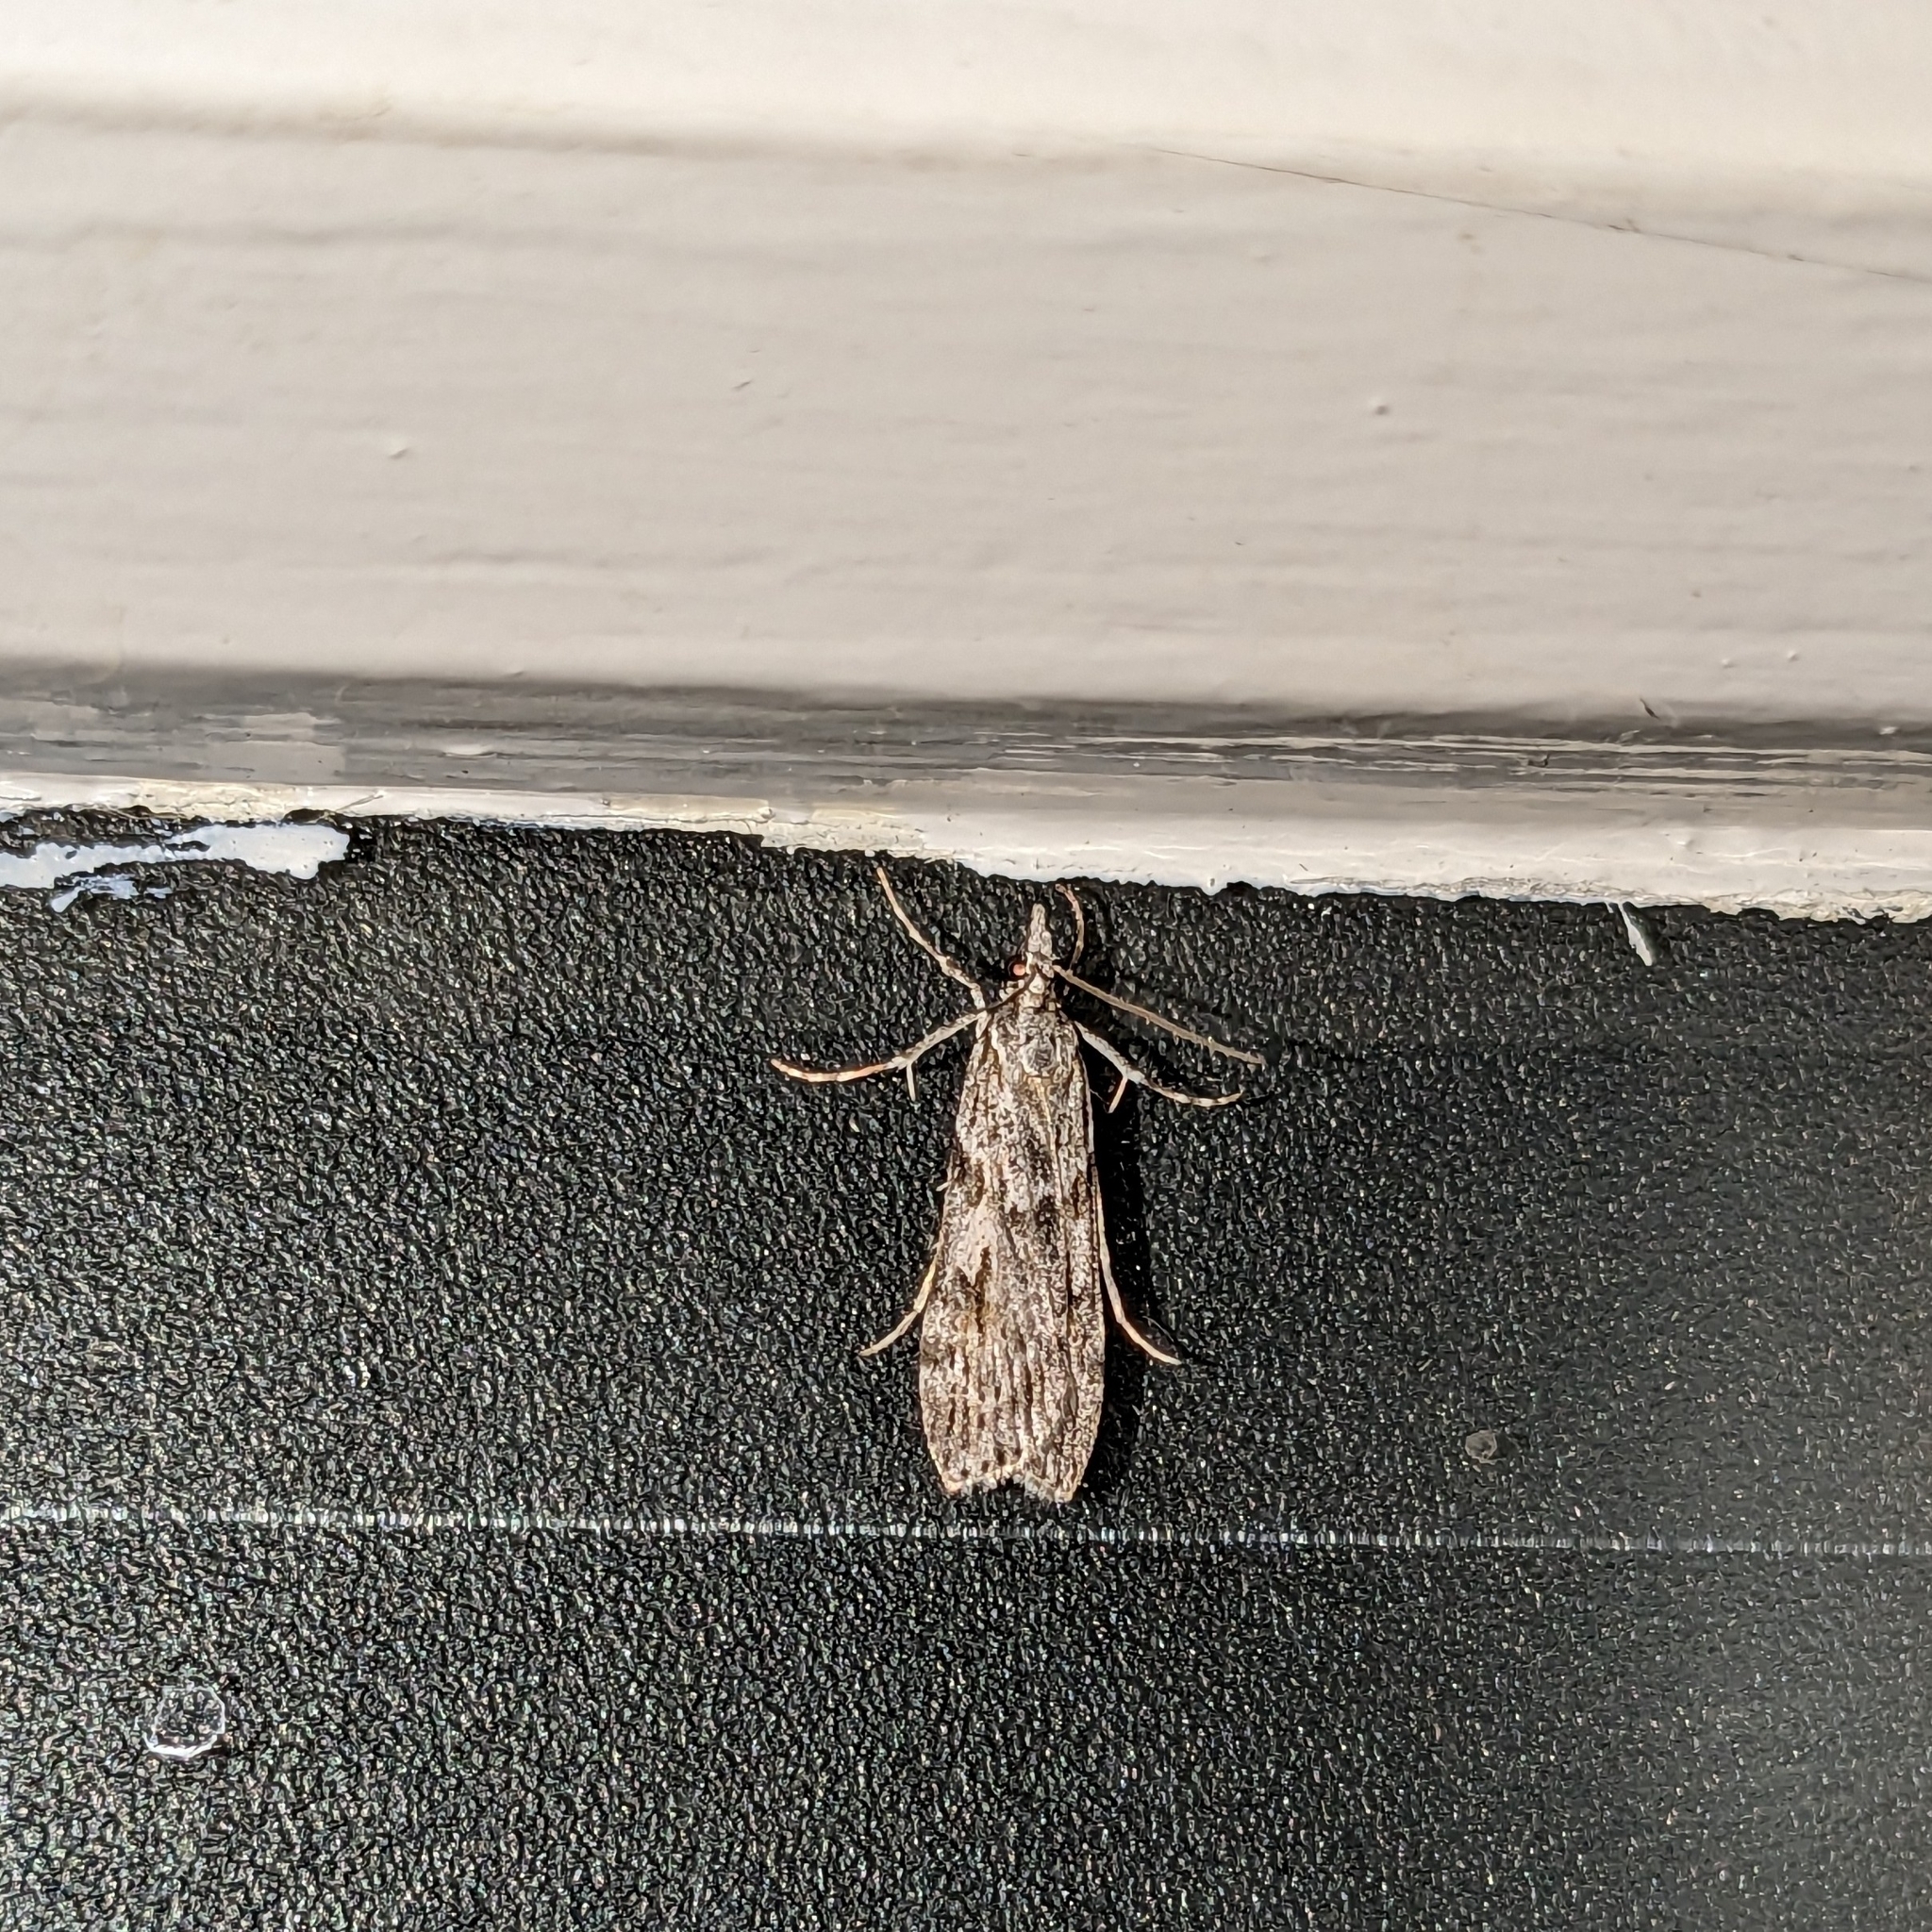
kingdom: Animalia
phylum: Arthropoda
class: Insecta
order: Lepidoptera
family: Crambidae
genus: Scoparia
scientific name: Scoparia halopis
